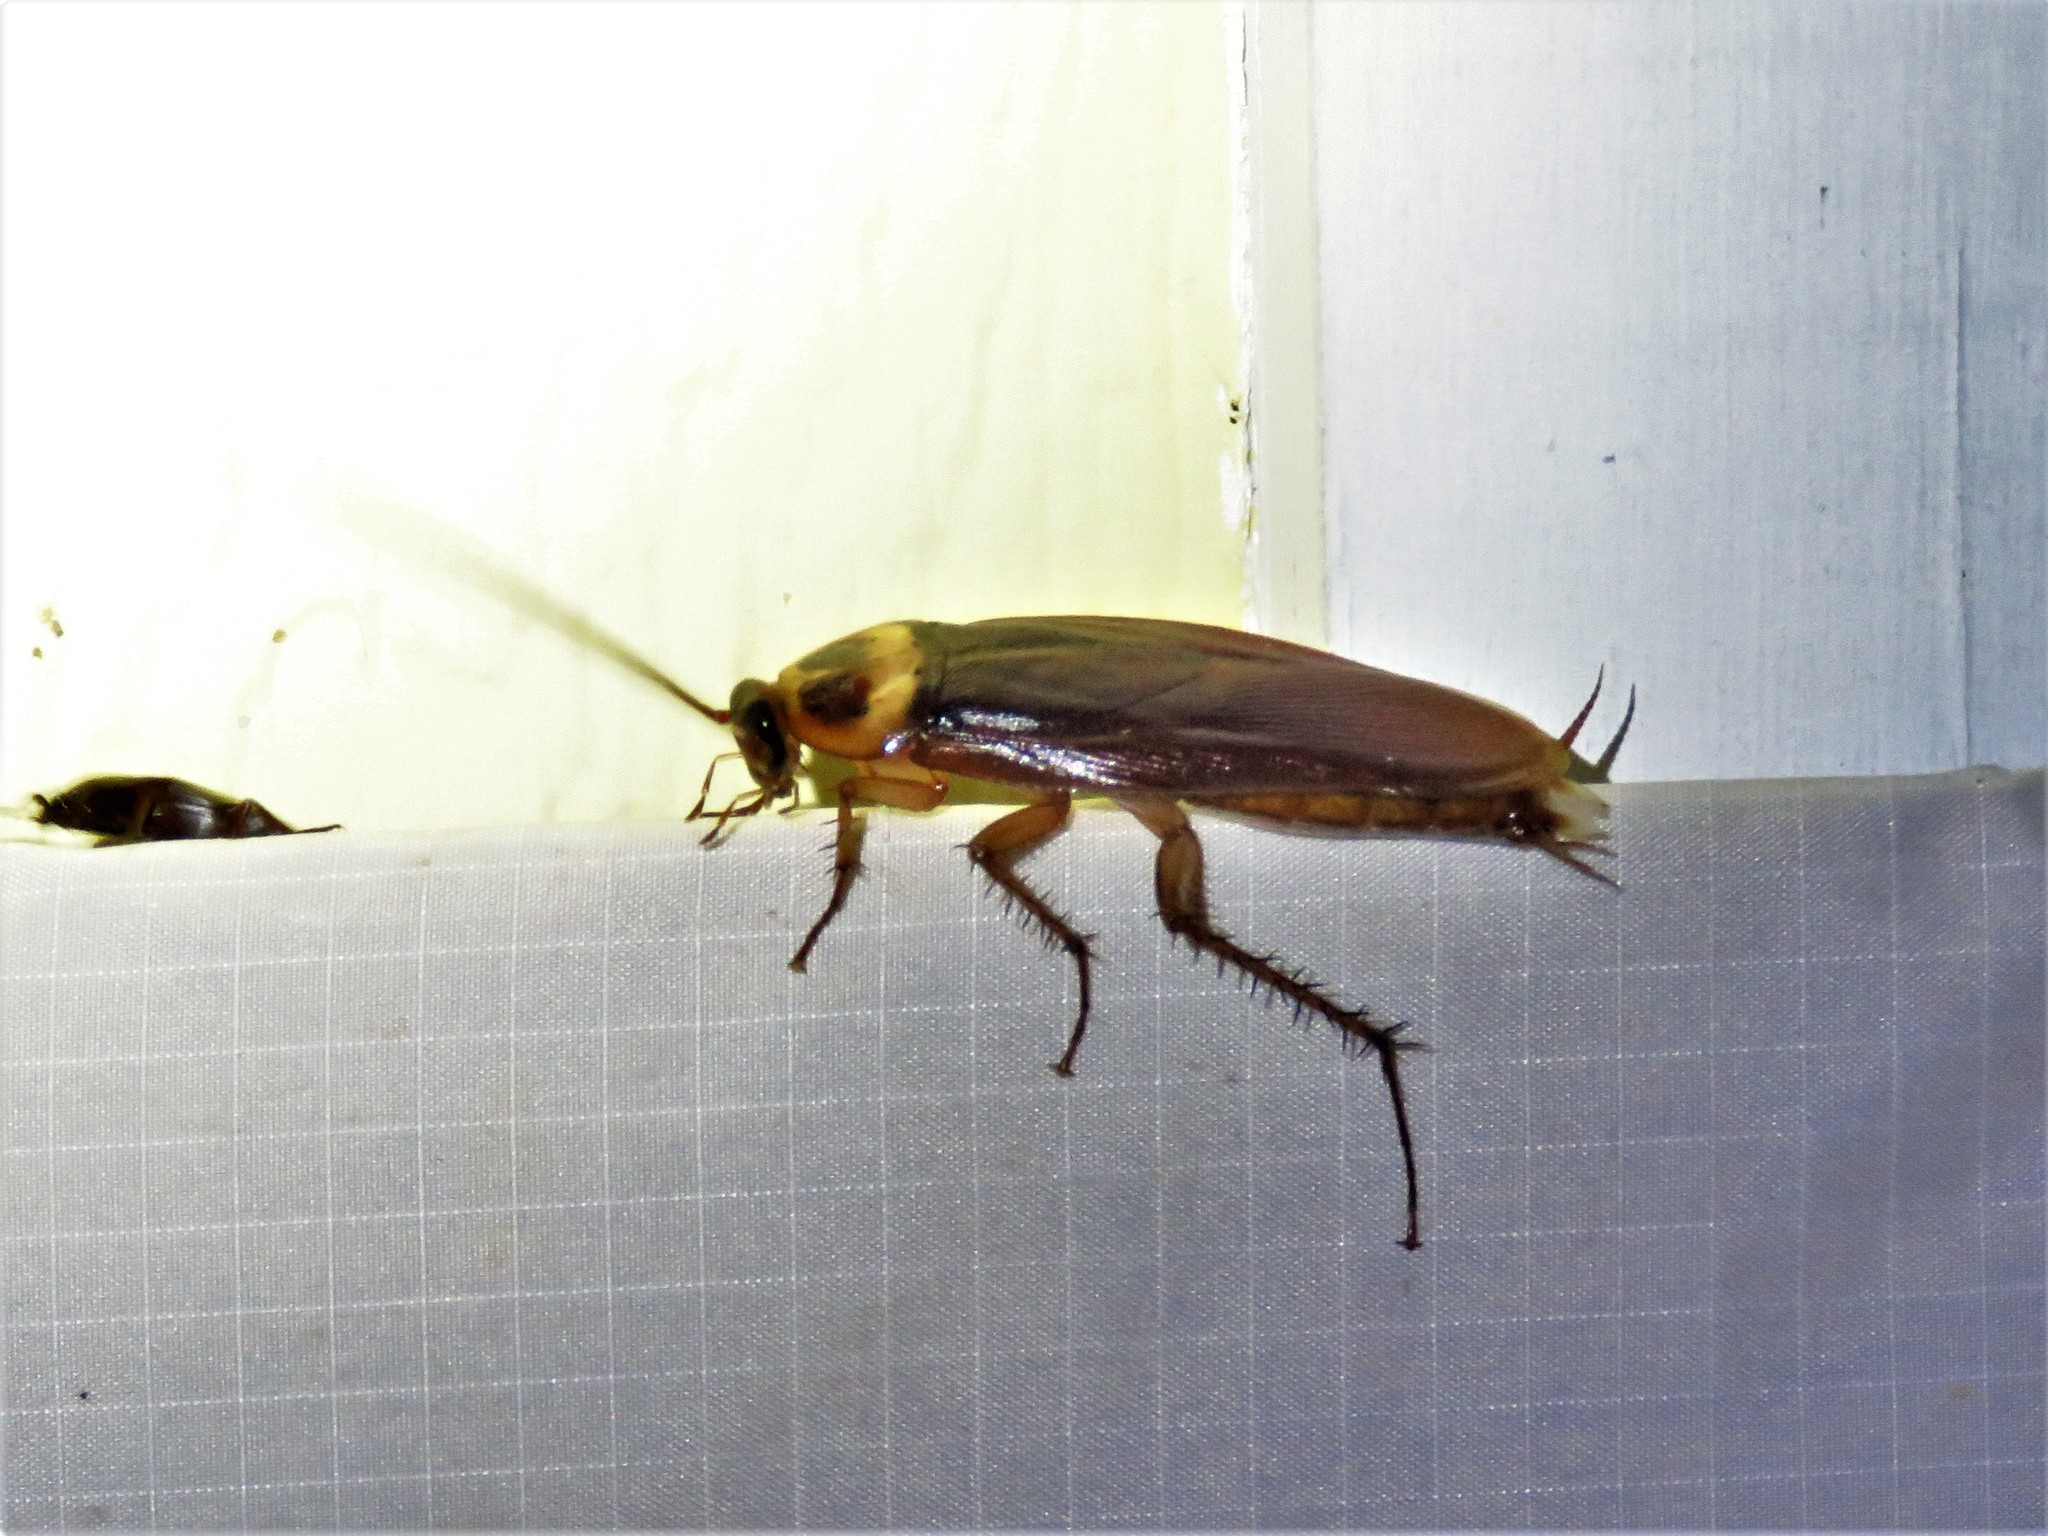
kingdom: Animalia
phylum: Arthropoda
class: Insecta
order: Blattodea
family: Blattidae
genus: Periplaneta
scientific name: Periplaneta americana
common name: American cockroach
